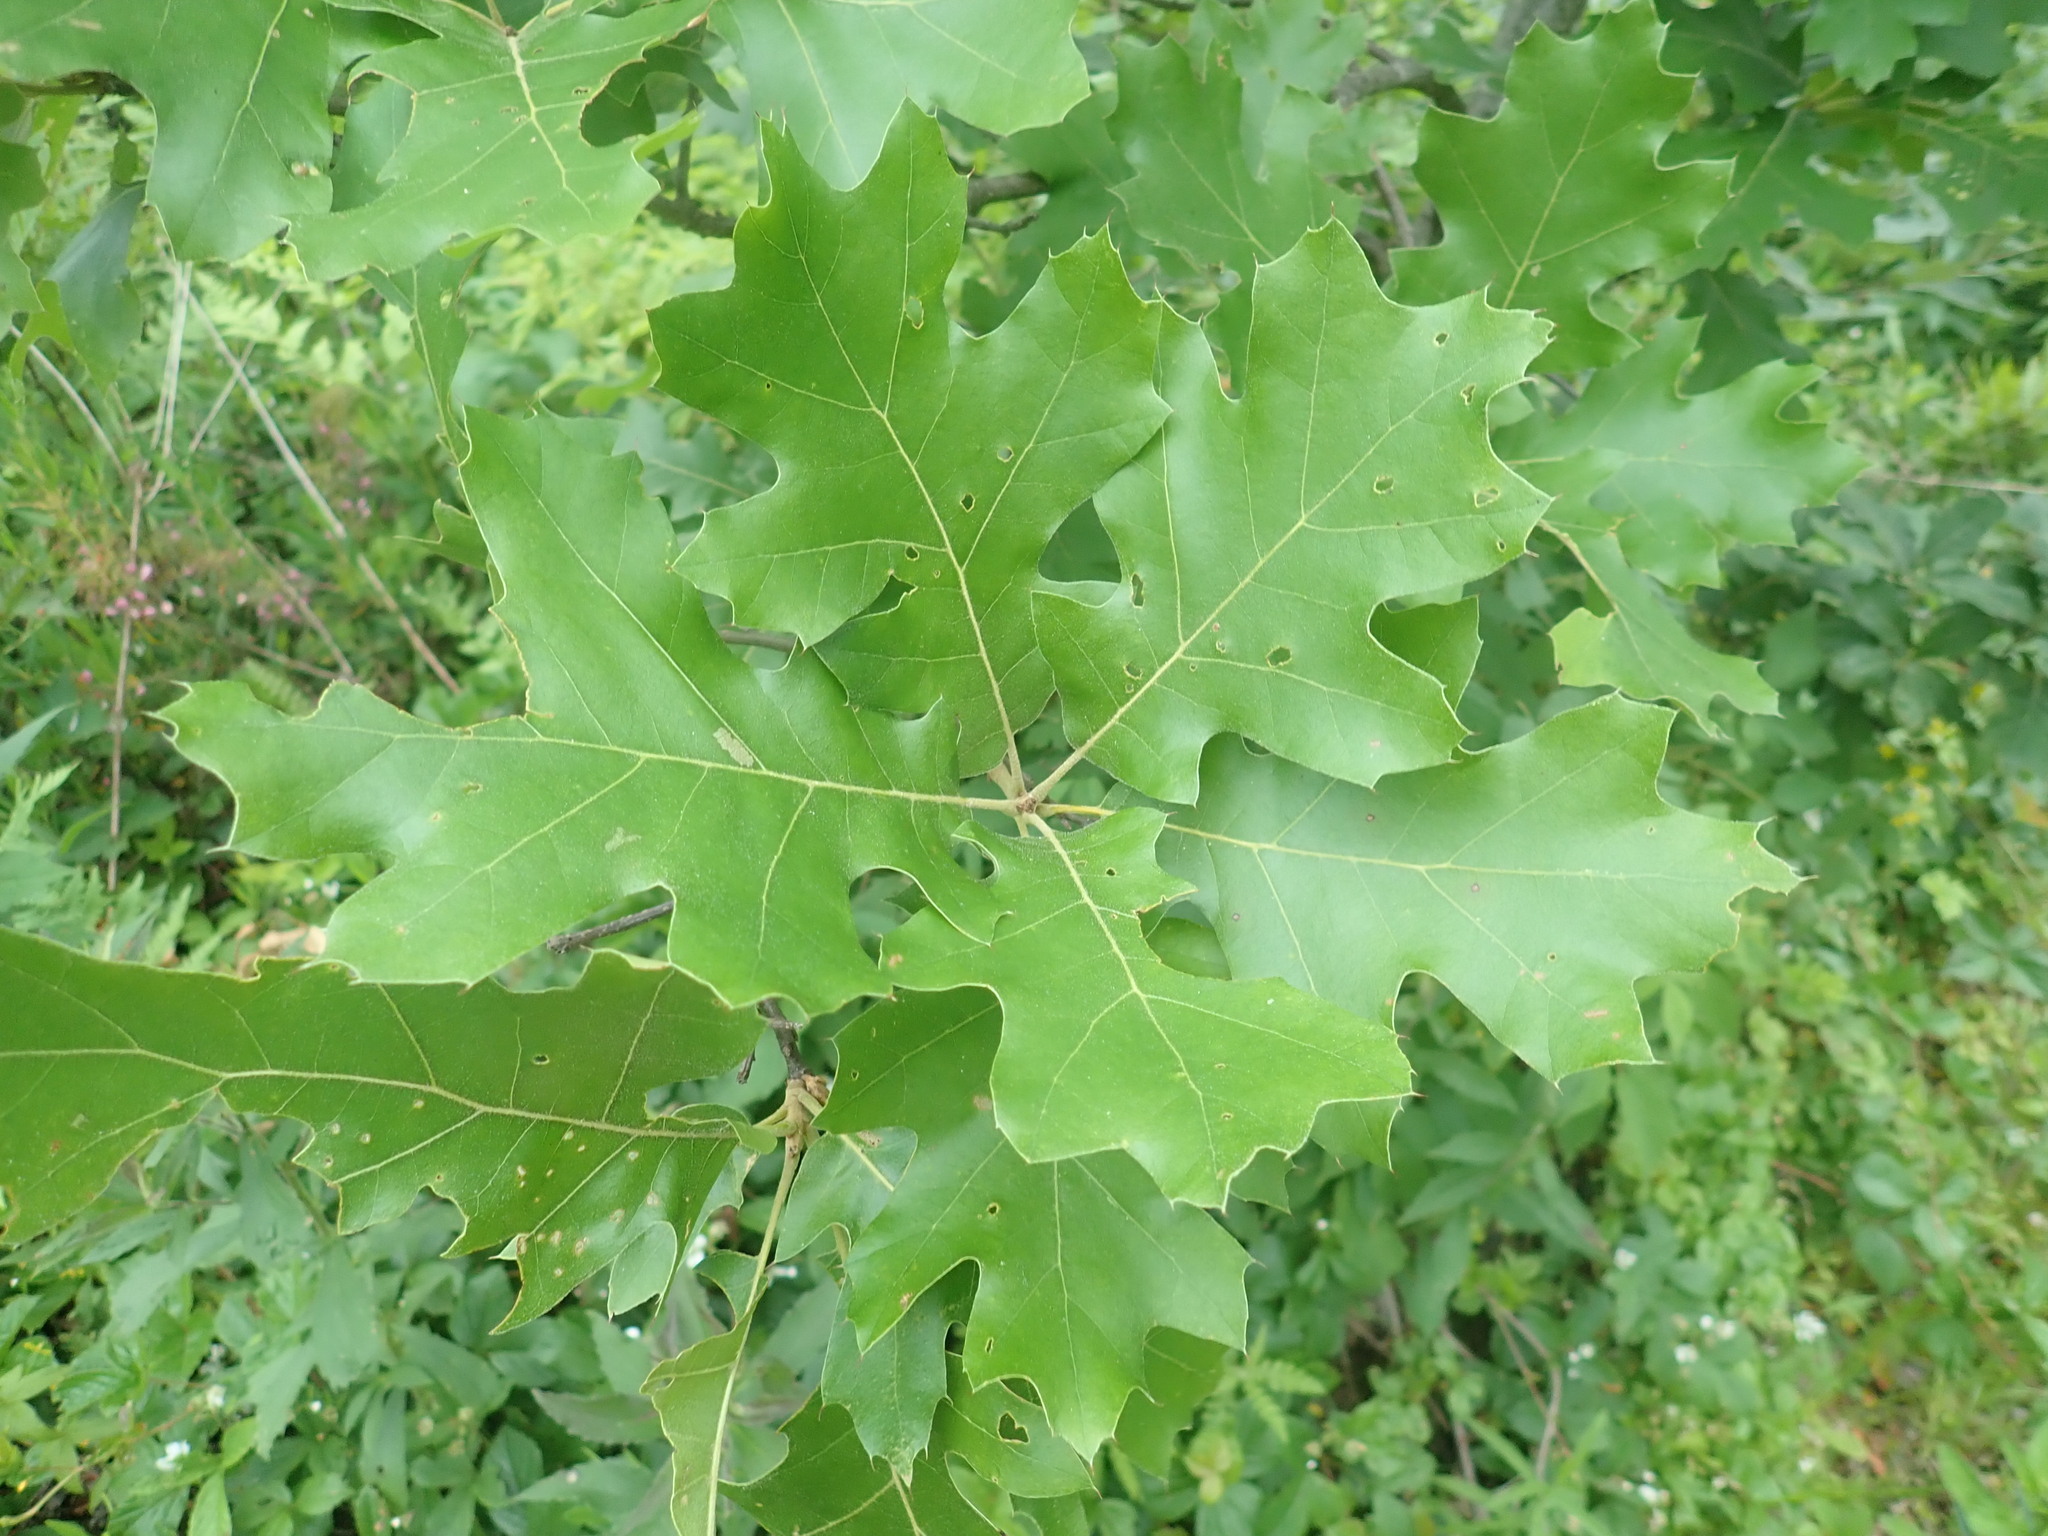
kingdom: Plantae
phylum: Tracheophyta
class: Magnoliopsida
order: Fagales
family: Fagaceae
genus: Quercus
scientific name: Quercus velutina
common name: Black oak
